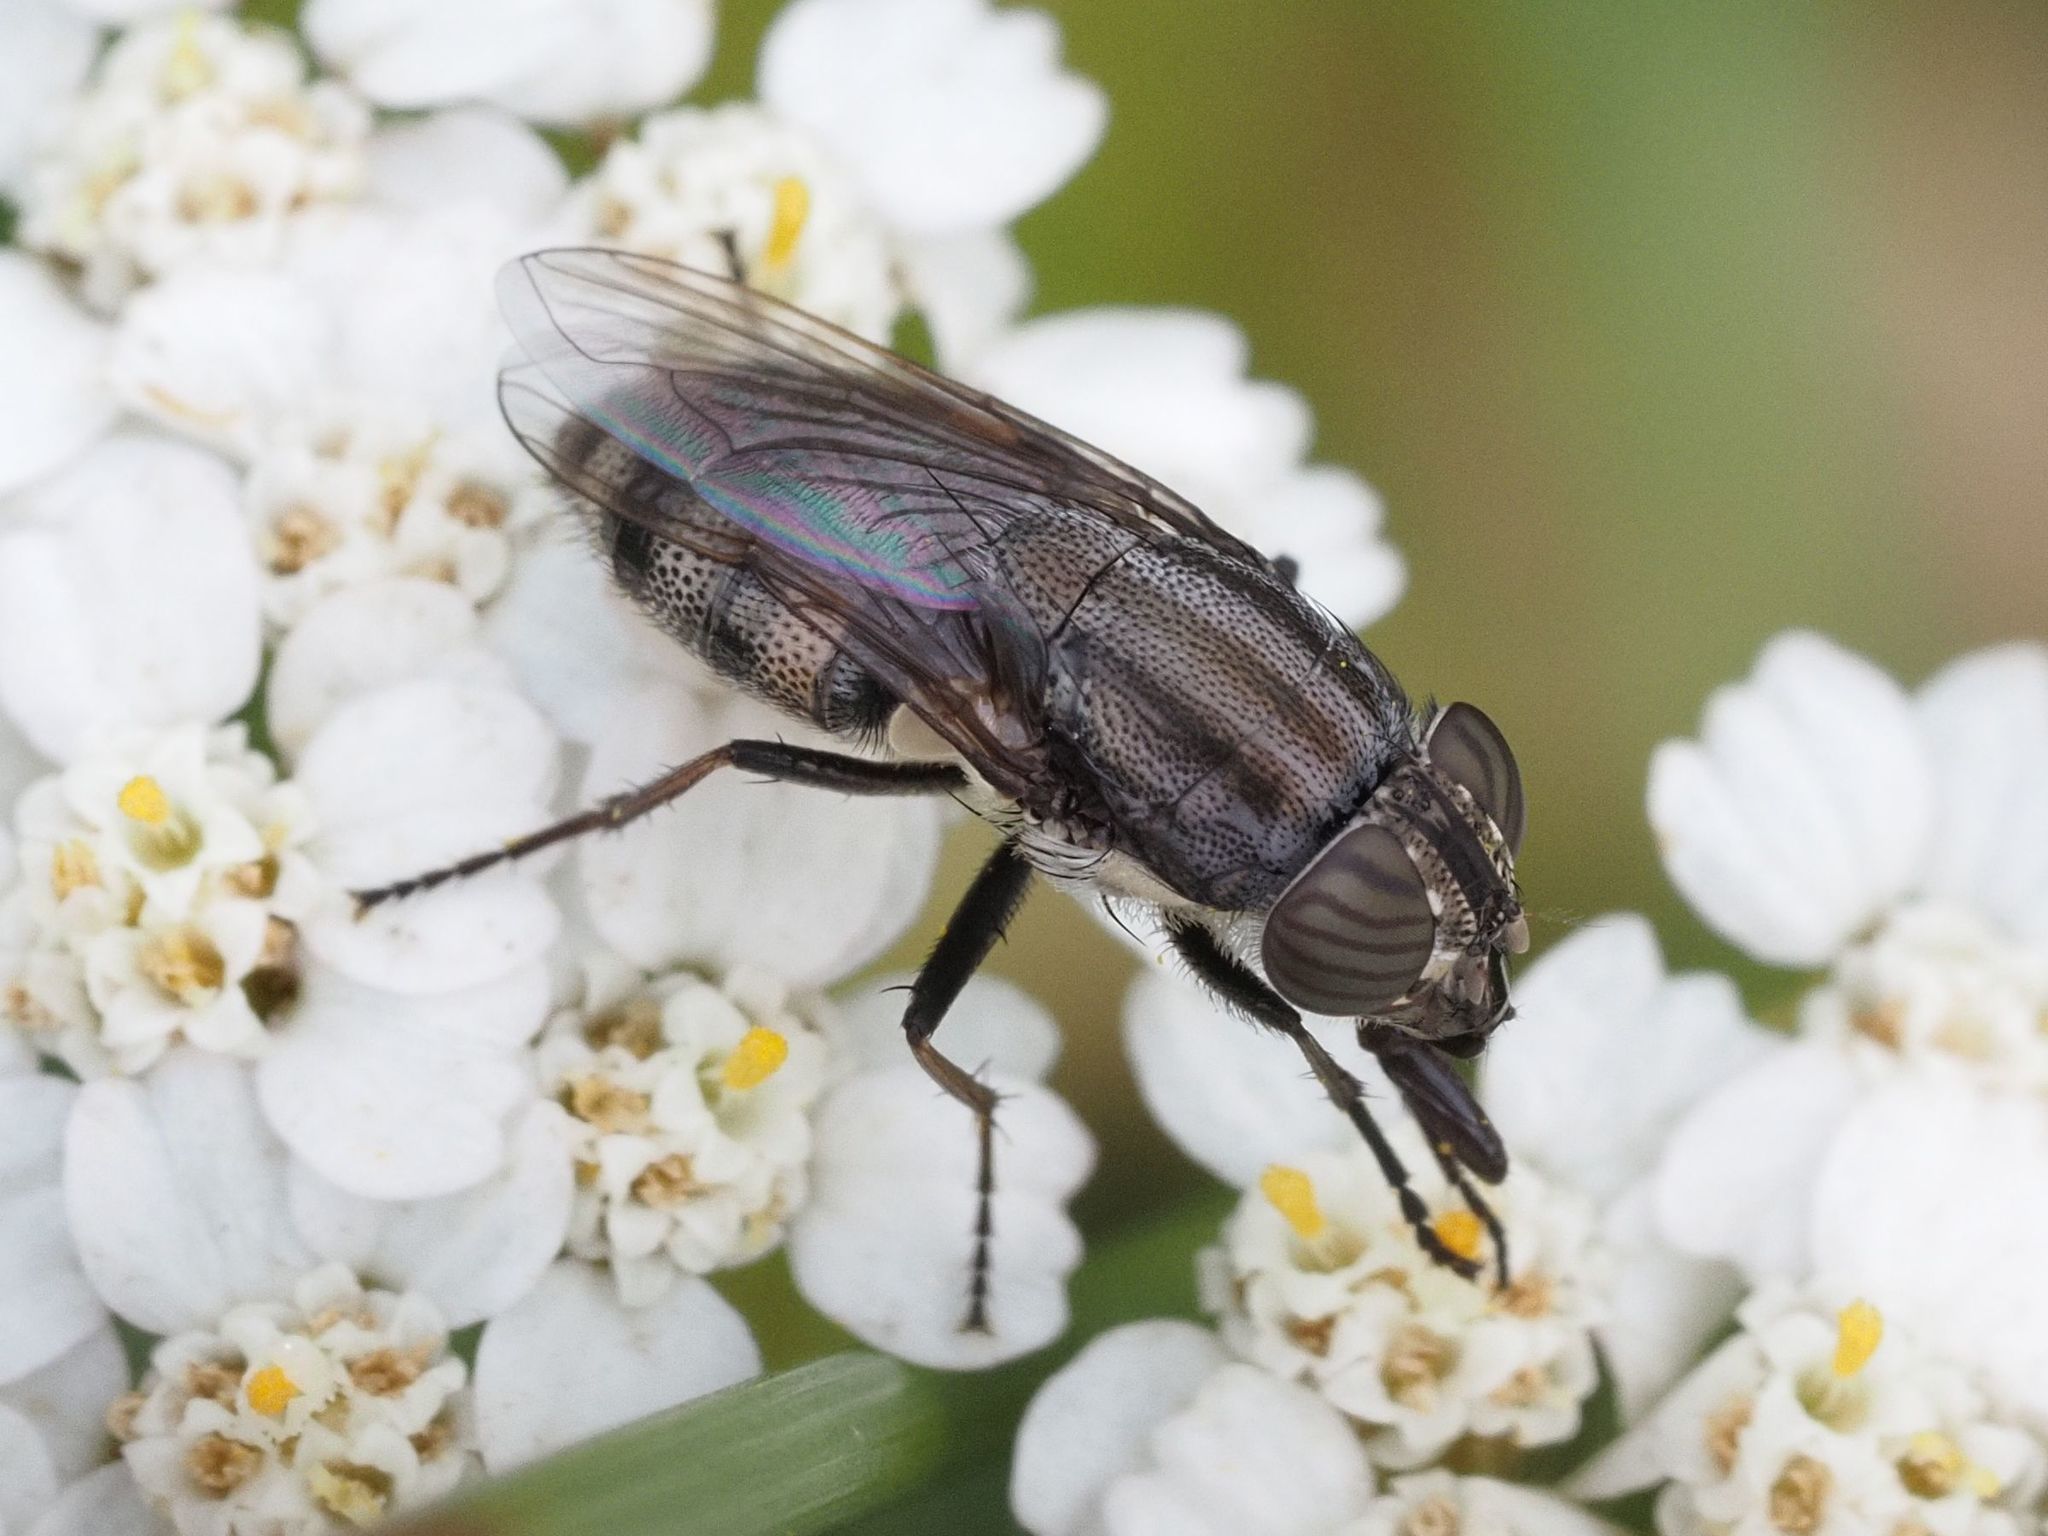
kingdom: Animalia
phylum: Arthropoda
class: Insecta
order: Diptera
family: Calliphoridae
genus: Stomorhina
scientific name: Stomorhina lunata
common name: Locust blowfly
